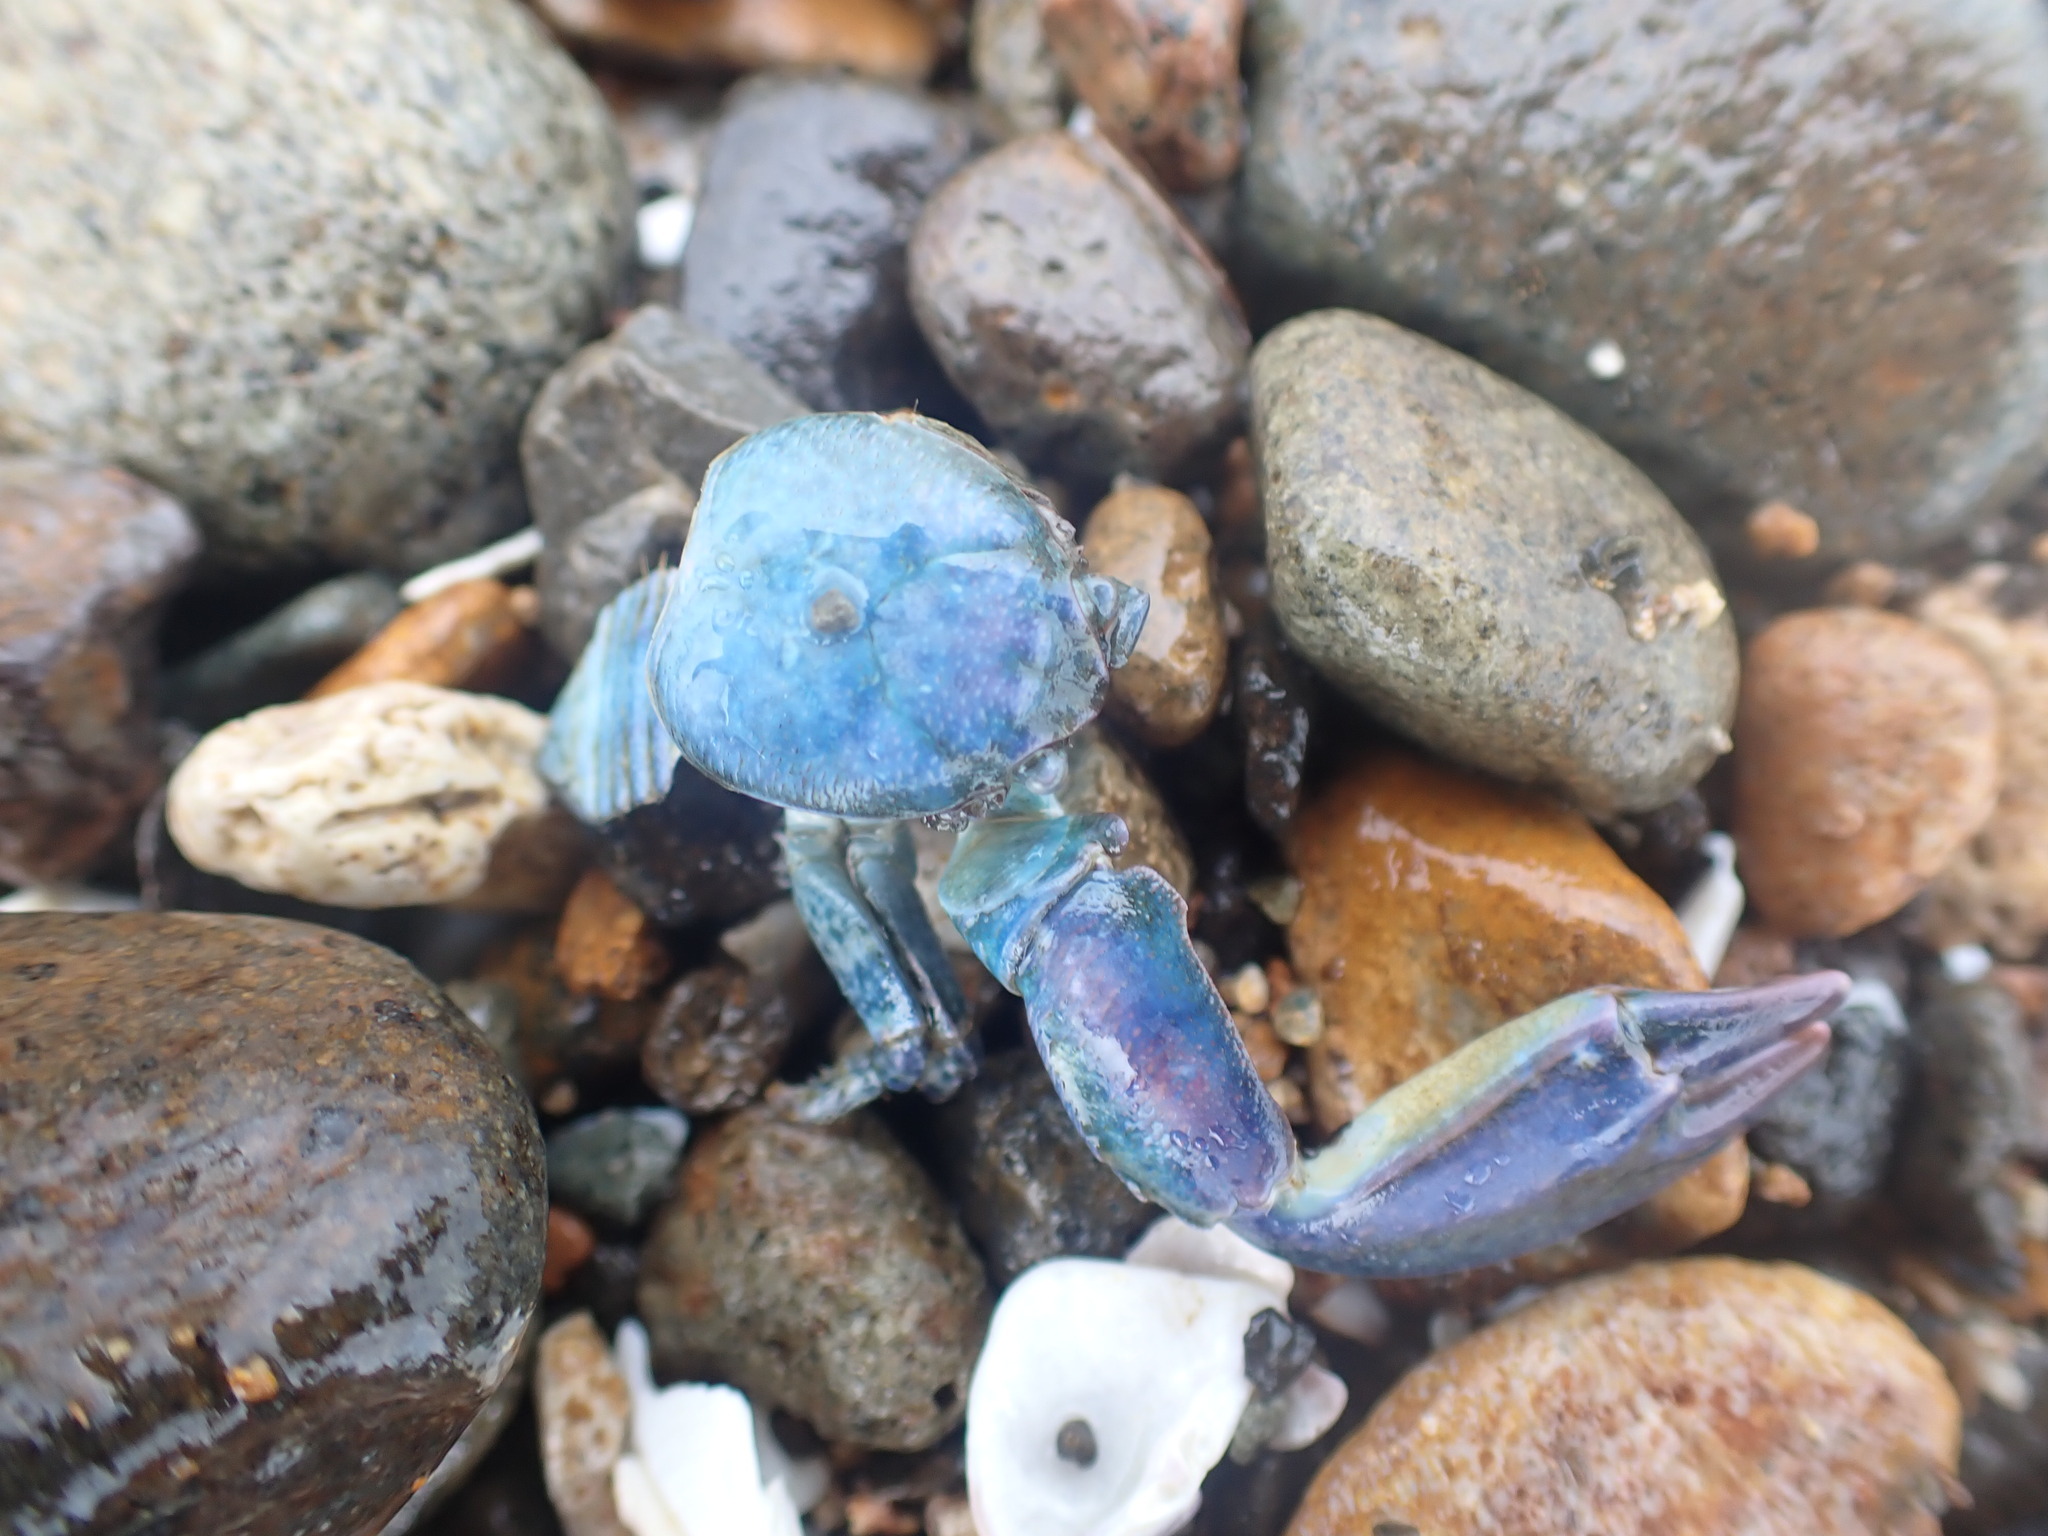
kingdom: Animalia
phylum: Arthropoda
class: Malacostraca
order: Decapoda
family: Porcellanidae
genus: Petrolisthes
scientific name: Petrolisthes elongatus
